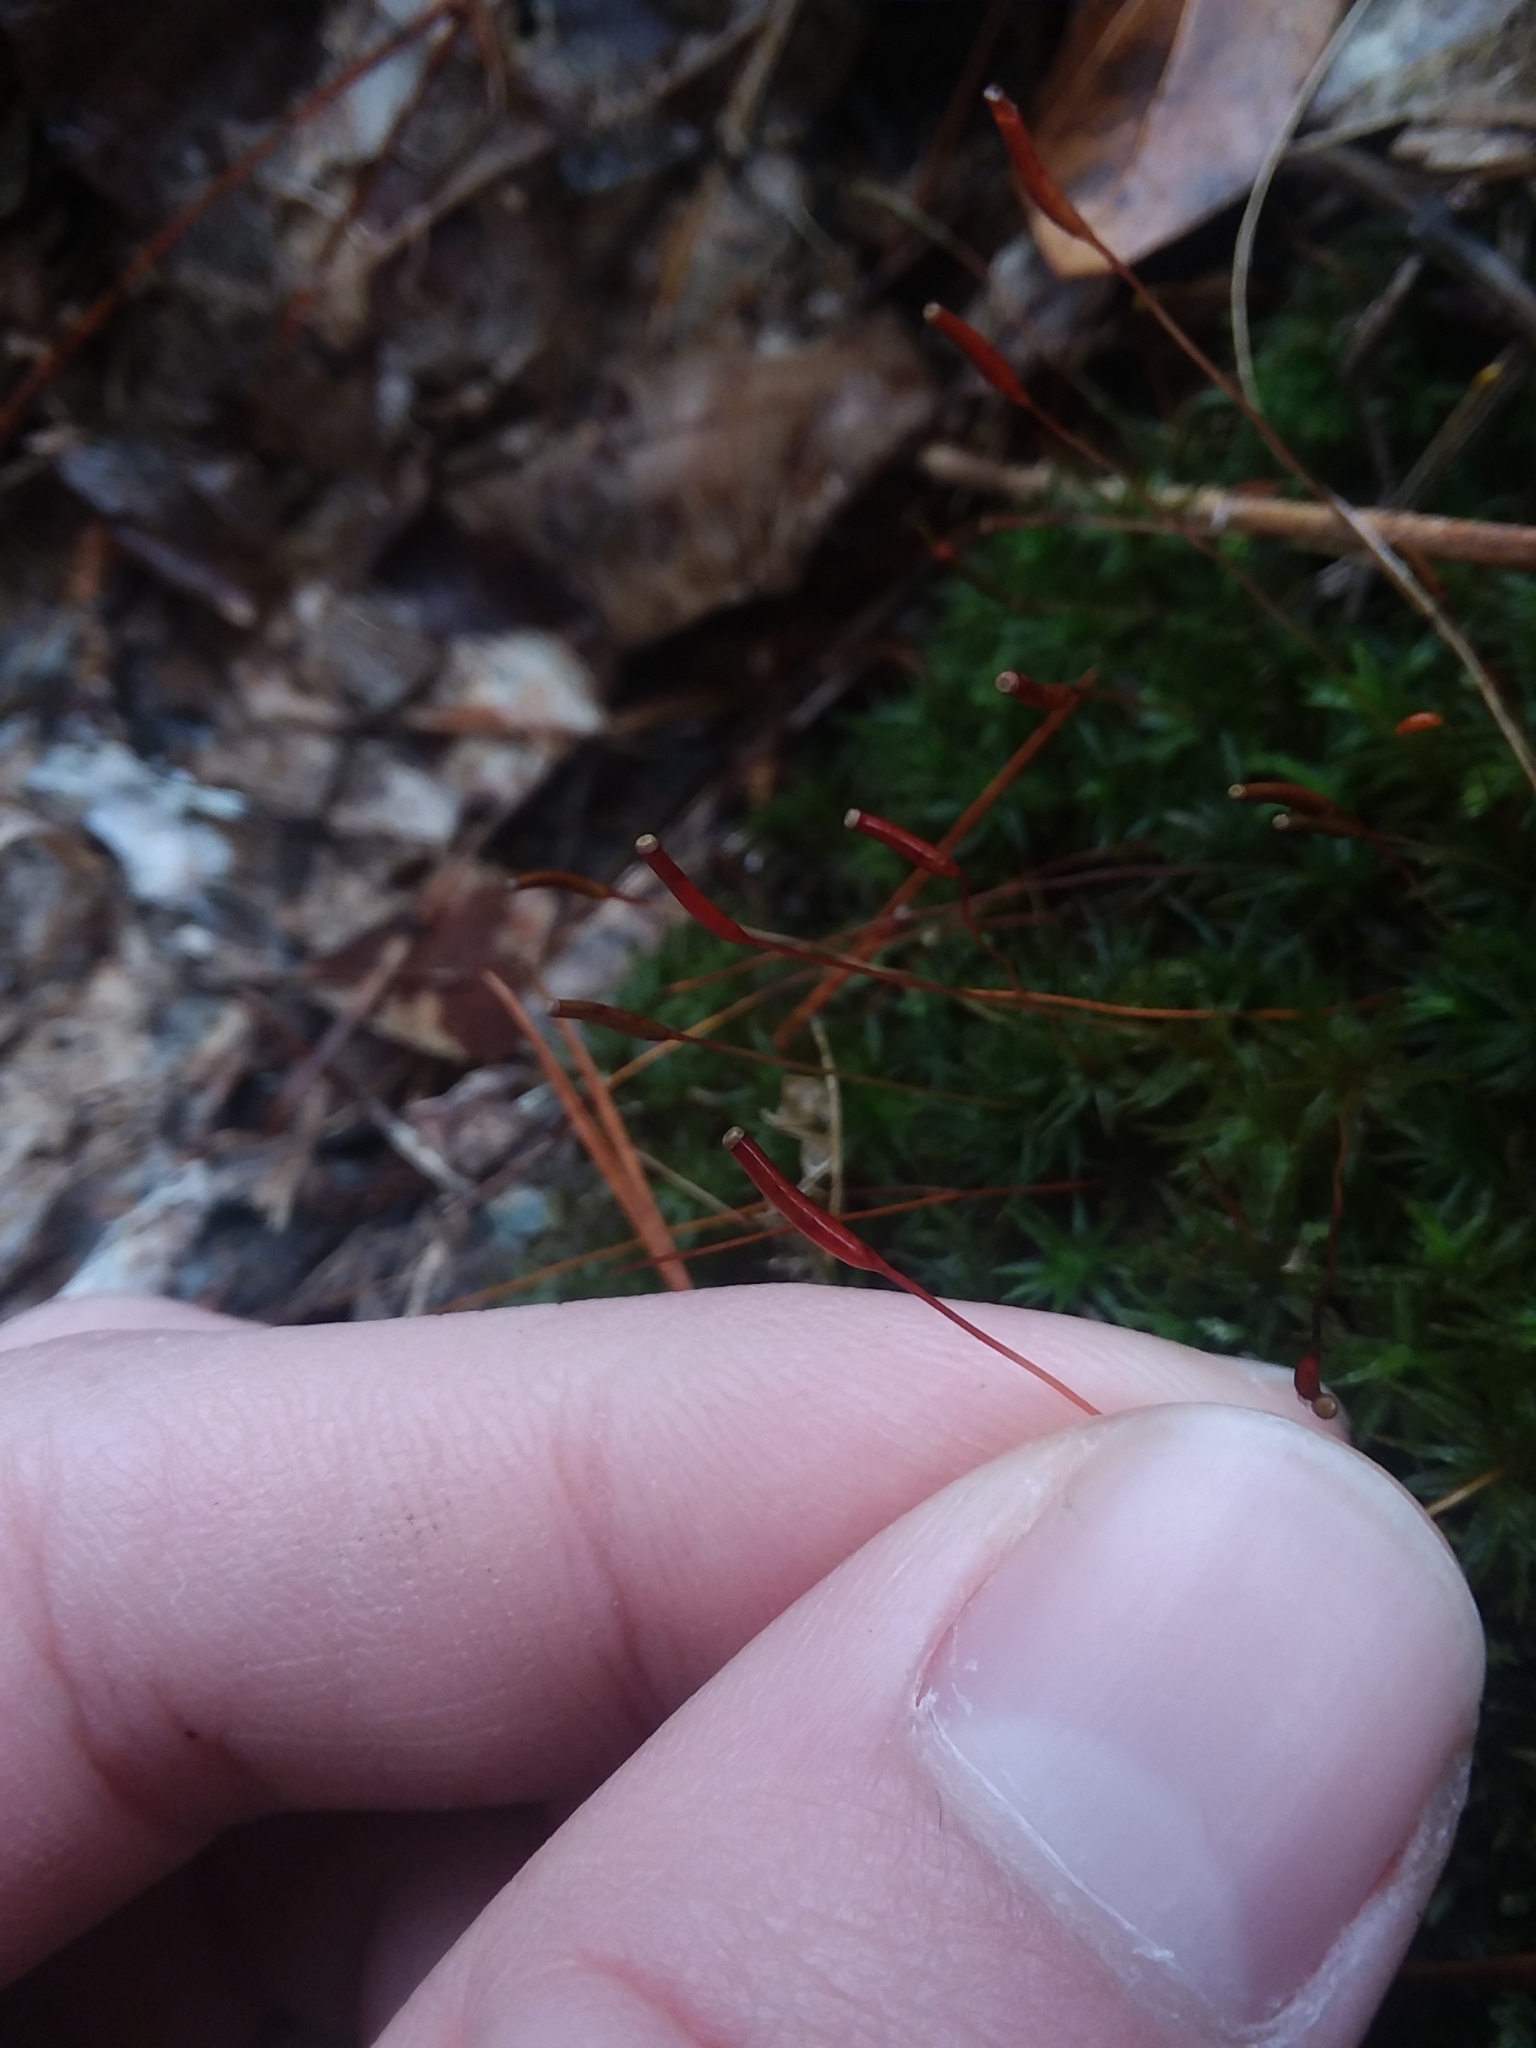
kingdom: Plantae
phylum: Bryophyta
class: Polytrichopsida
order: Polytrichales
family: Polytrichaceae
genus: Atrichum
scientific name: Atrichum angustatum
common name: Lesser smoothcap
